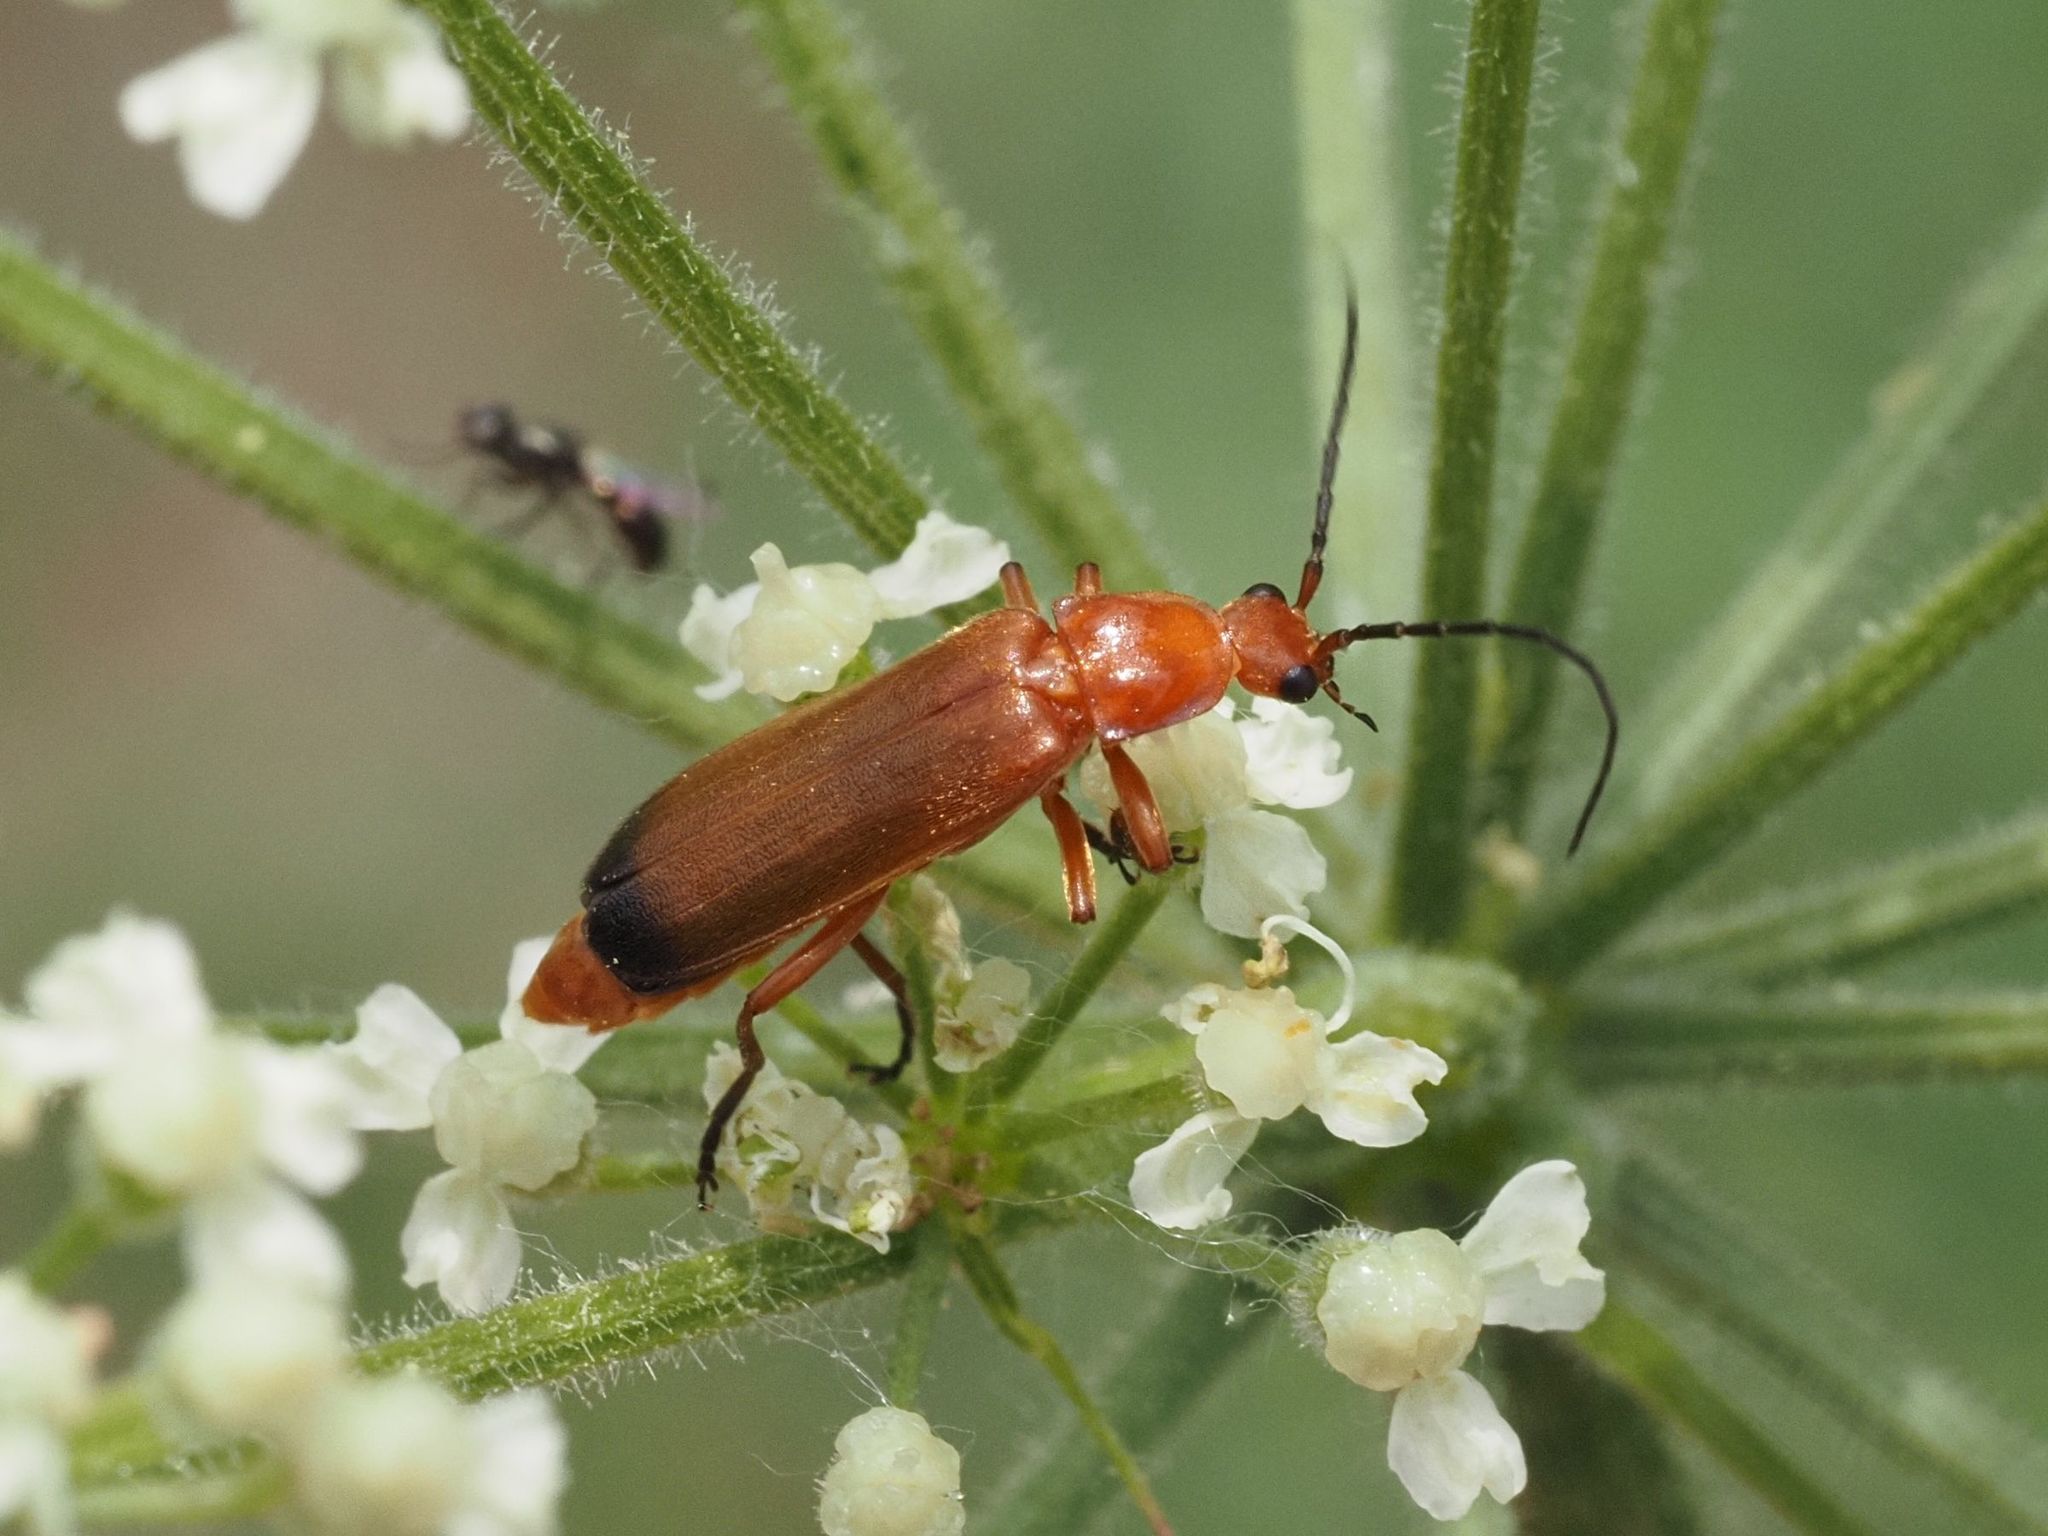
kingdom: Animalia
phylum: Arthropoda
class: Insecta
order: Coleoptera
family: Cantharidae
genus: Rhagonycha
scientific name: Rhagonycha fulva
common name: Common red soldier beetle
